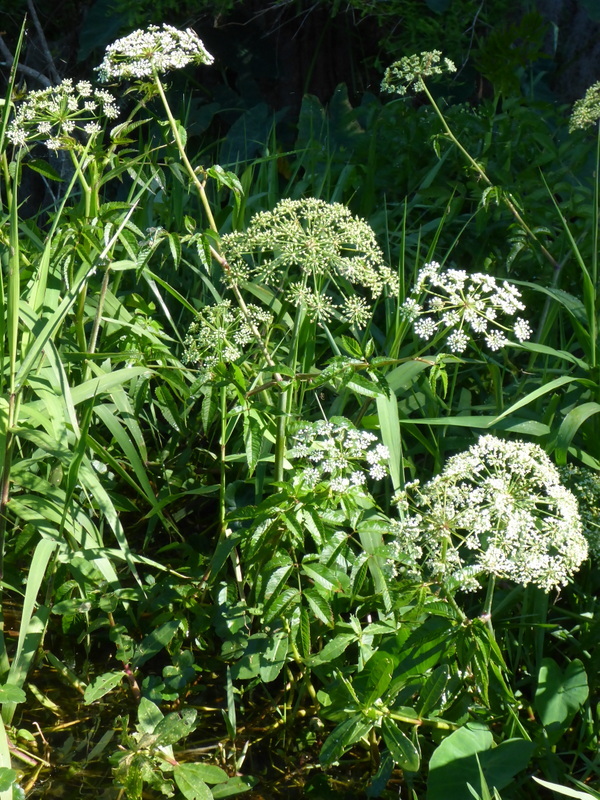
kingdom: Plantae
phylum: Tracheophyta
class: Magnoliopsida
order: Apiales
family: Apiaceae
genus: Cicuta
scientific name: Cicuta maculata
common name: Spotted cowbane
